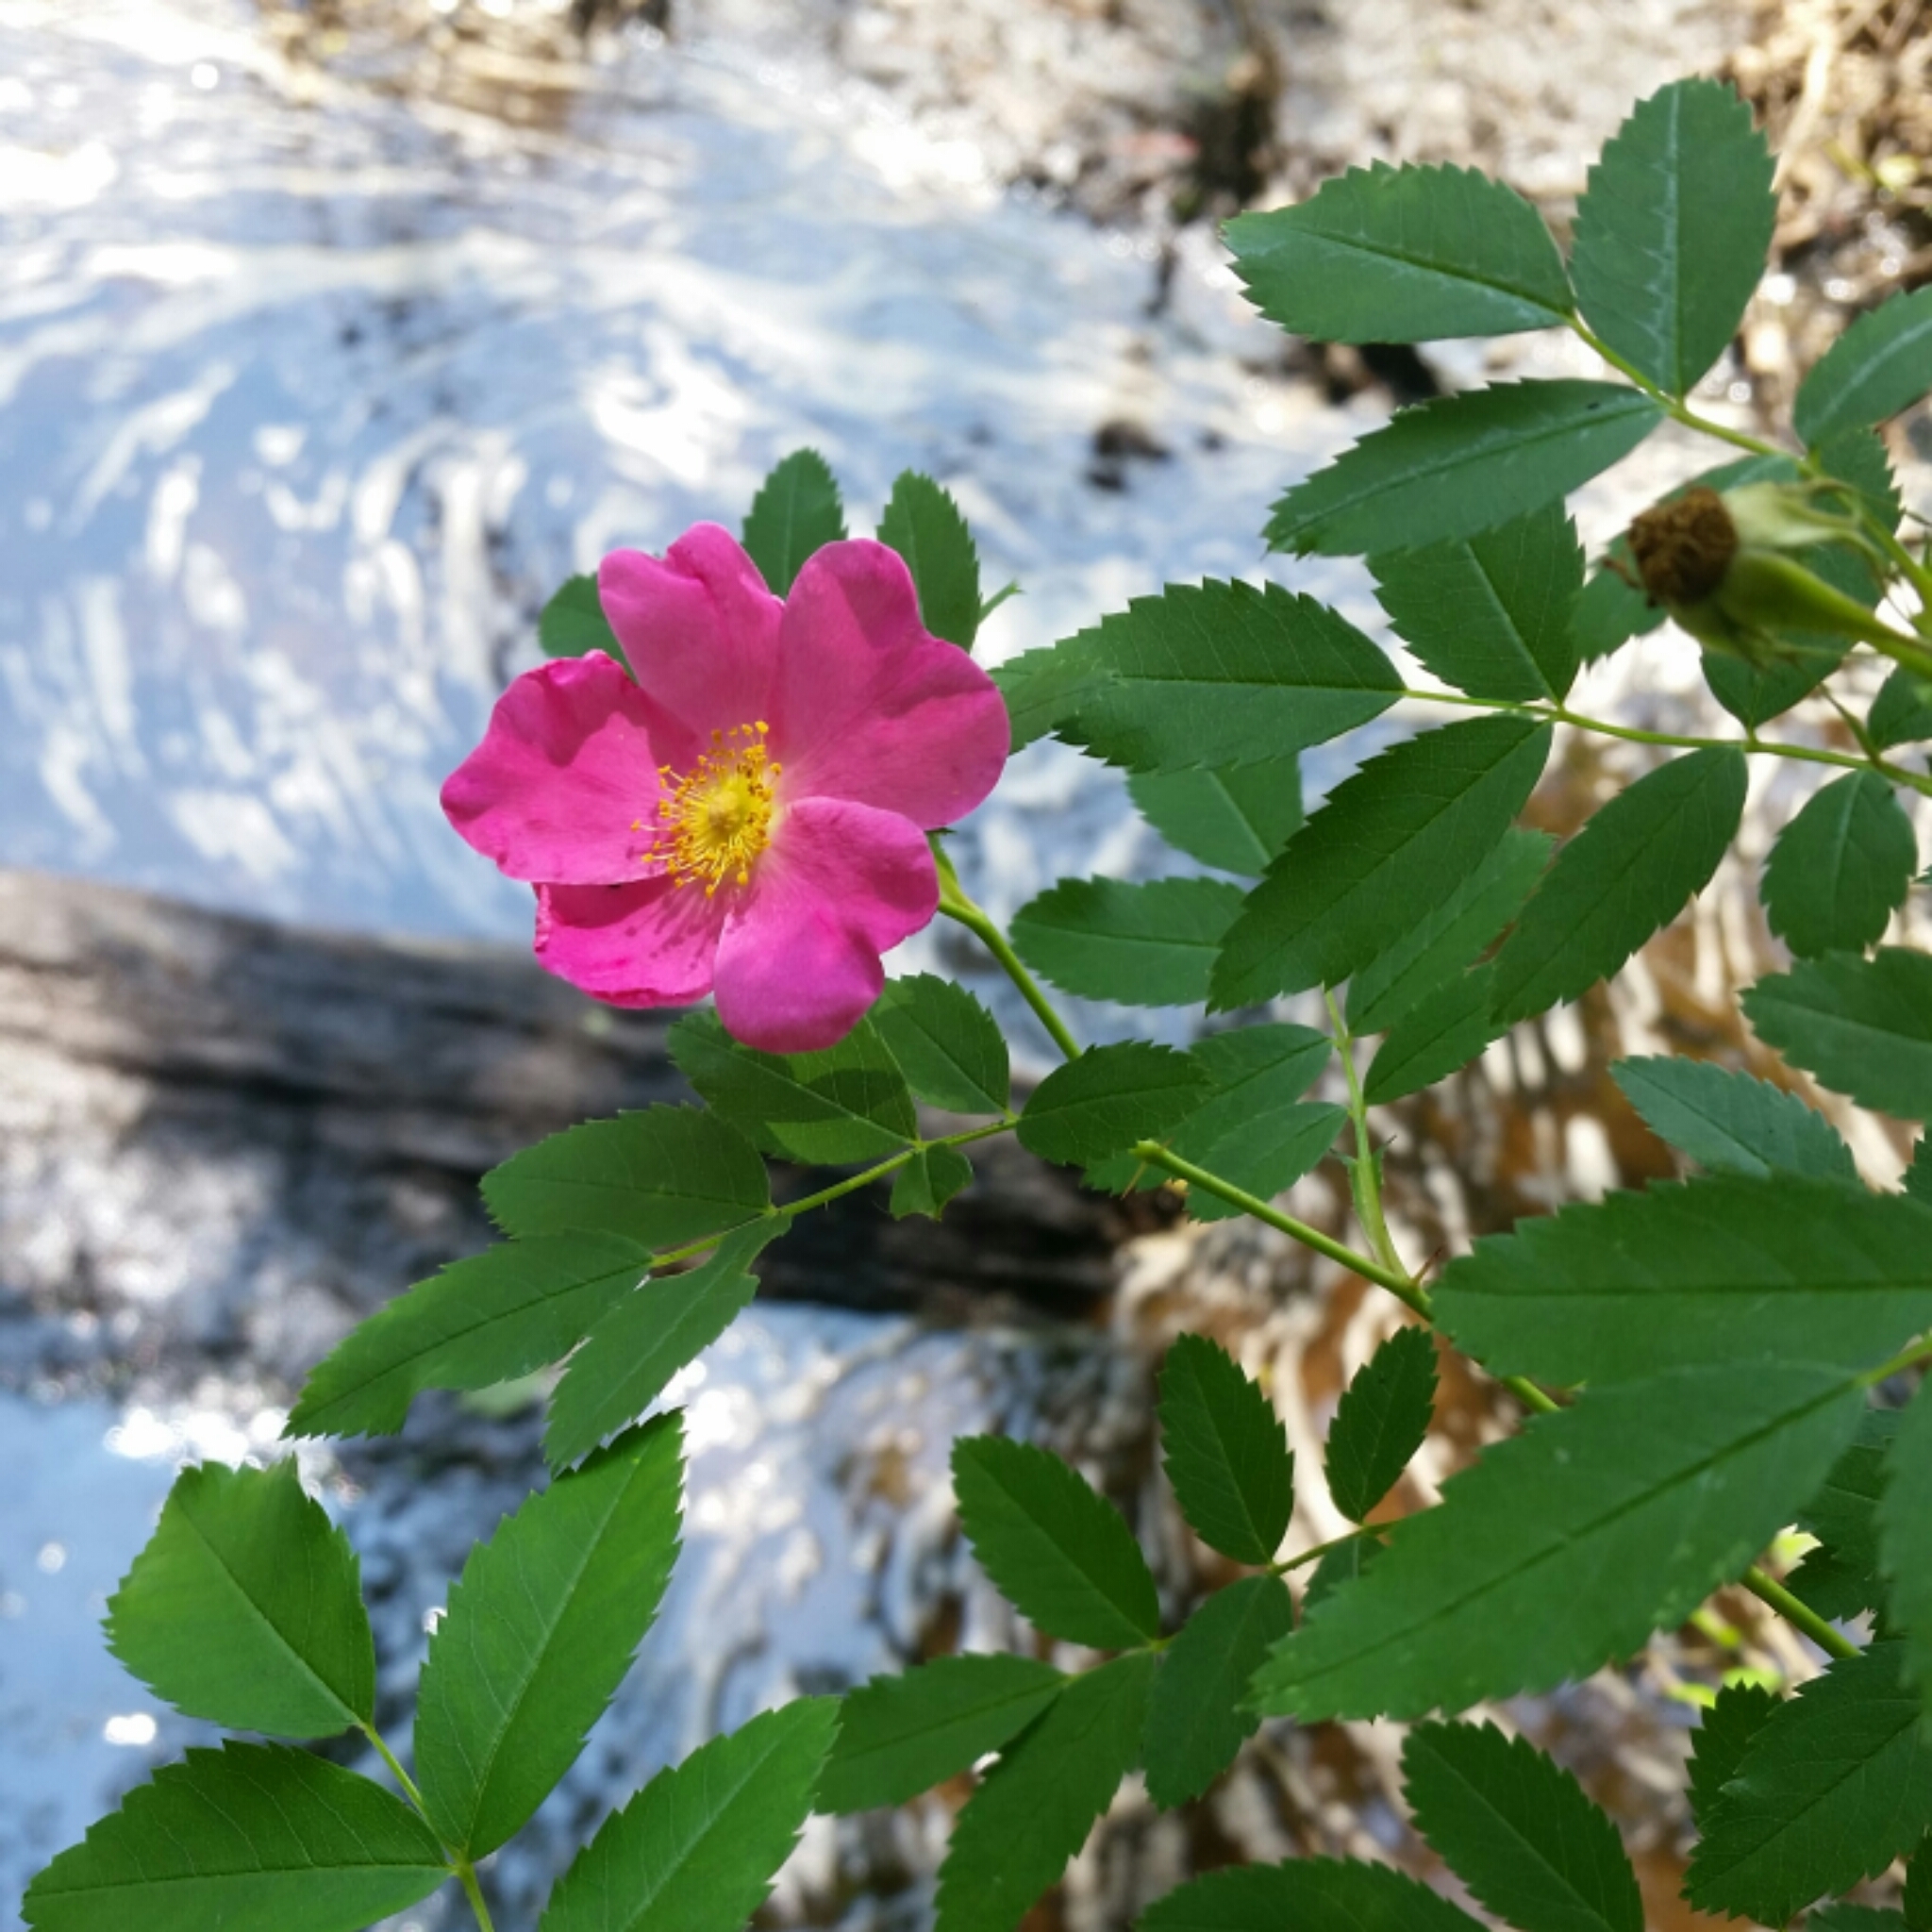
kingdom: Plantae
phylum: Tracheophyta
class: Magnoliopsida
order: Rosales
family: Rosaceae
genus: Rosa
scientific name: Rosa carolina
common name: Pasture rose
